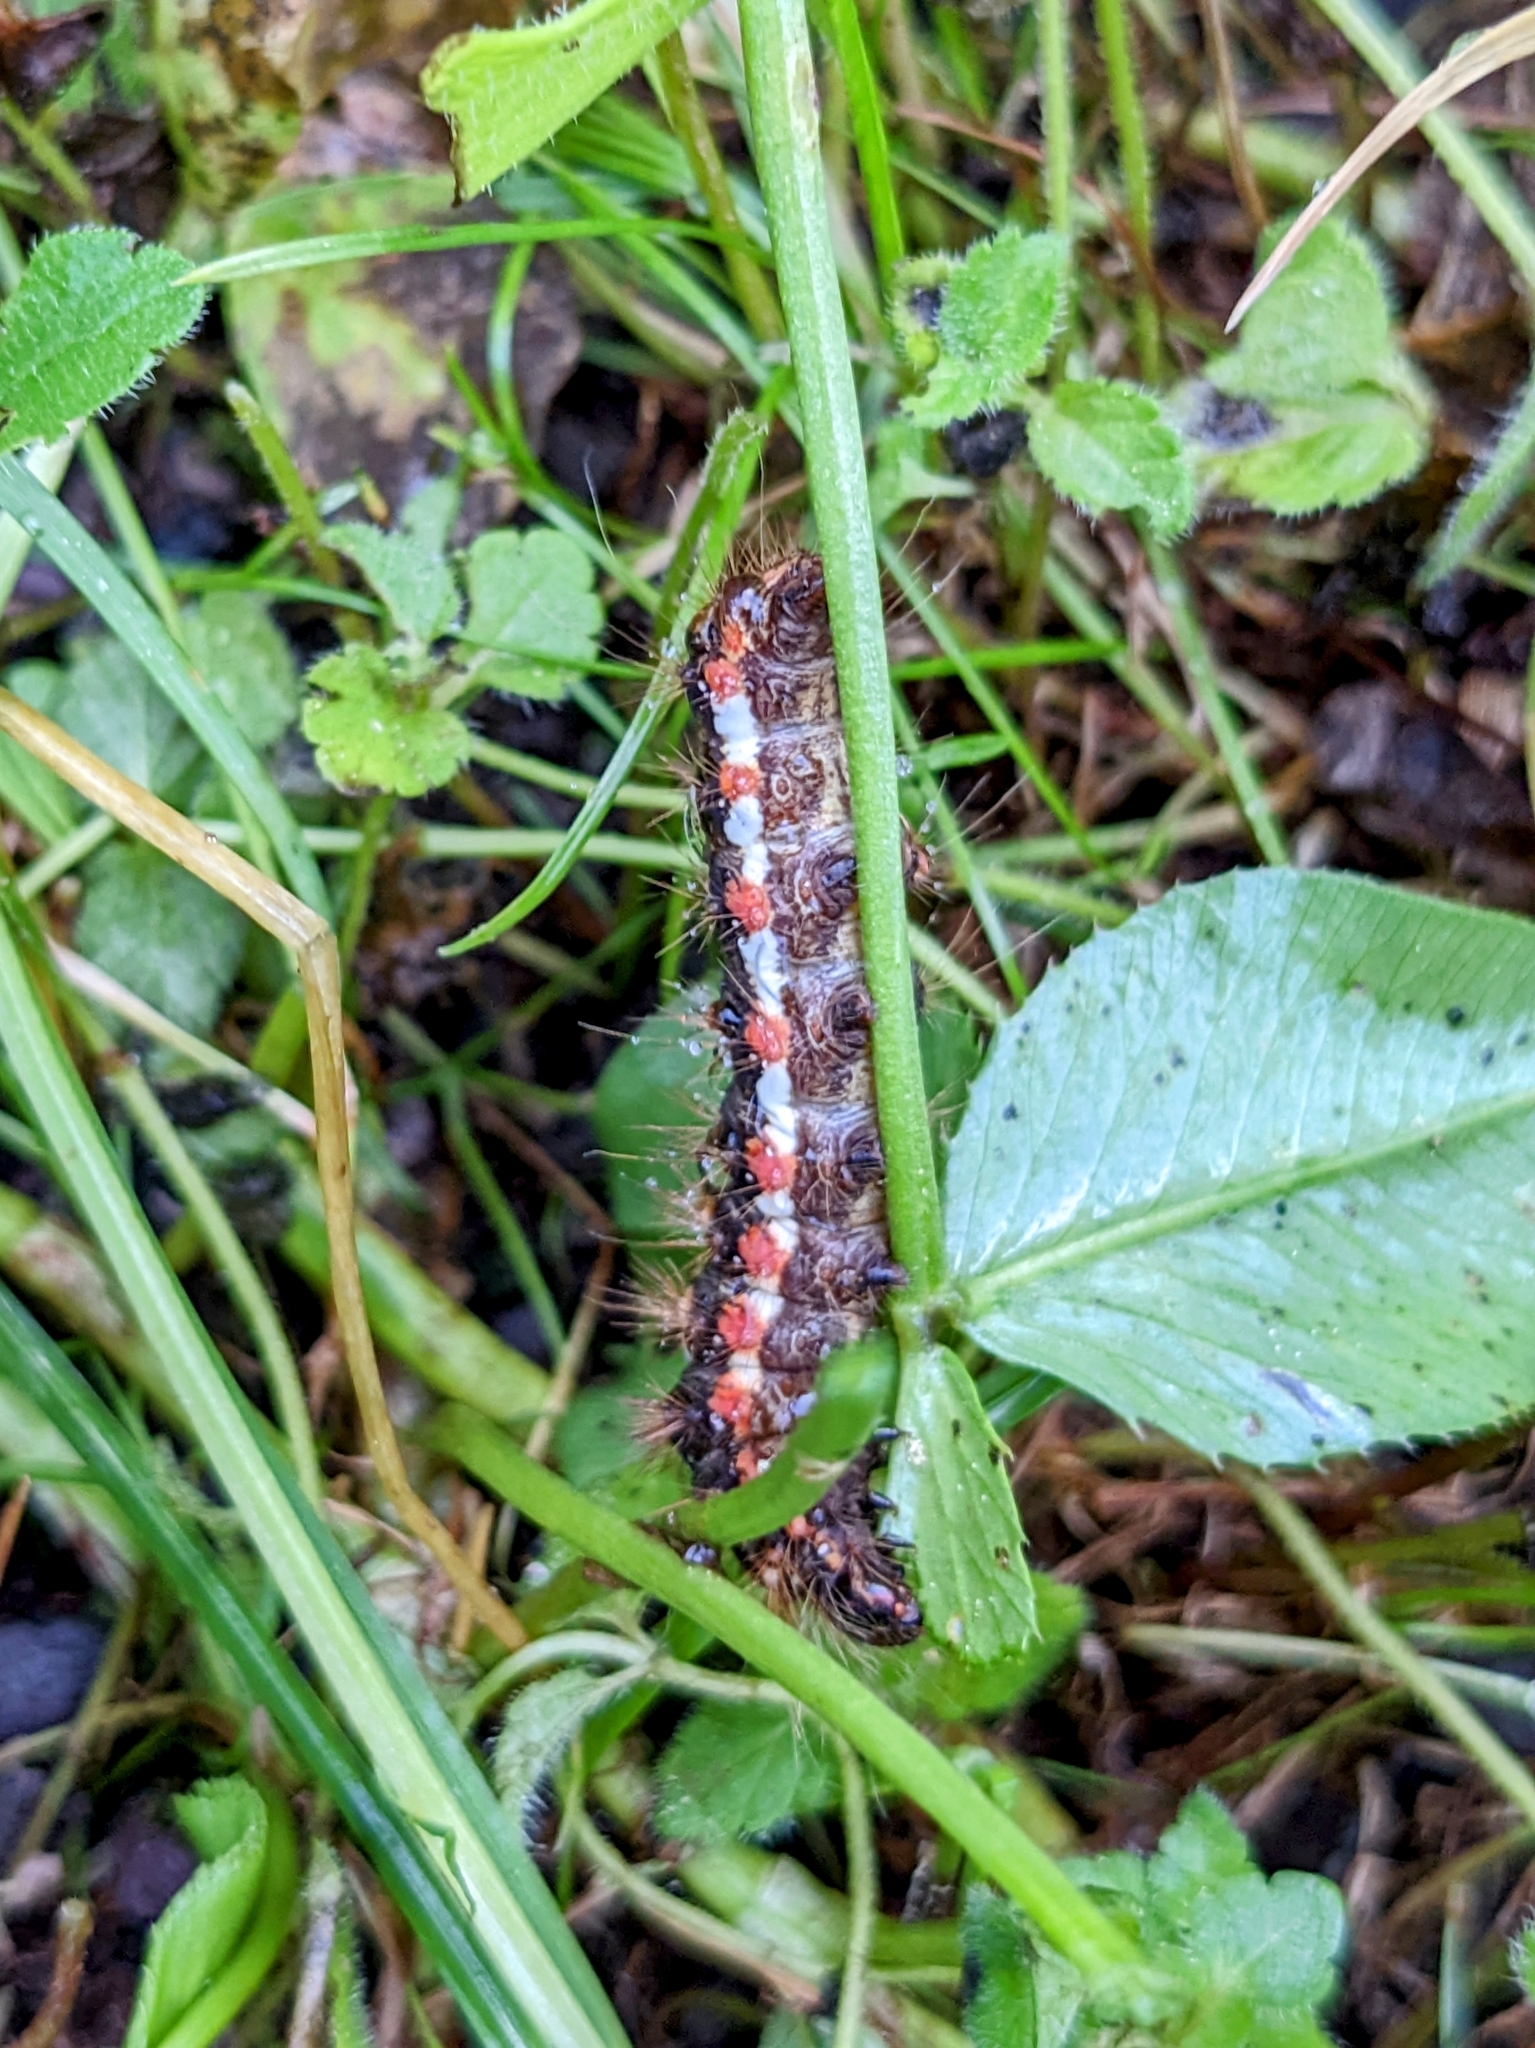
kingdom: Animalia
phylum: Arthropoda
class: Insecta
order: Lepidoptera
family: Noctuidae
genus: Acronicta
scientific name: Acronicta rumicis
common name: Knot grass
